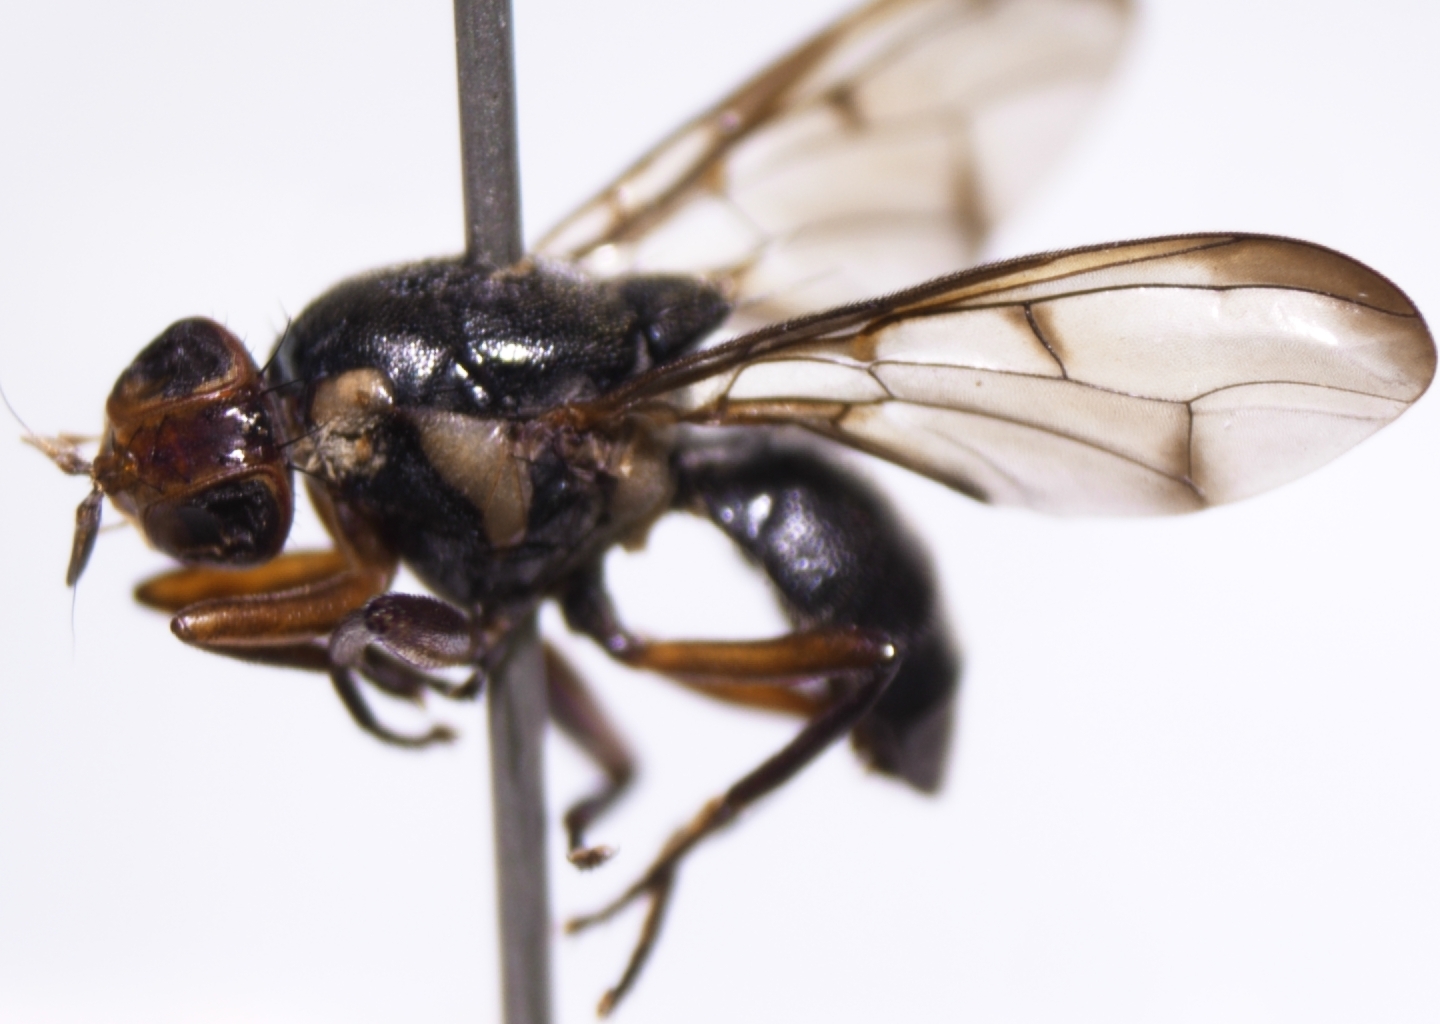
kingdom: Animalia
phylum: Arthropoda
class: Insecta
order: Diptera
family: Tephritidae
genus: Bactrocera
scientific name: Bactrocera melanotus
